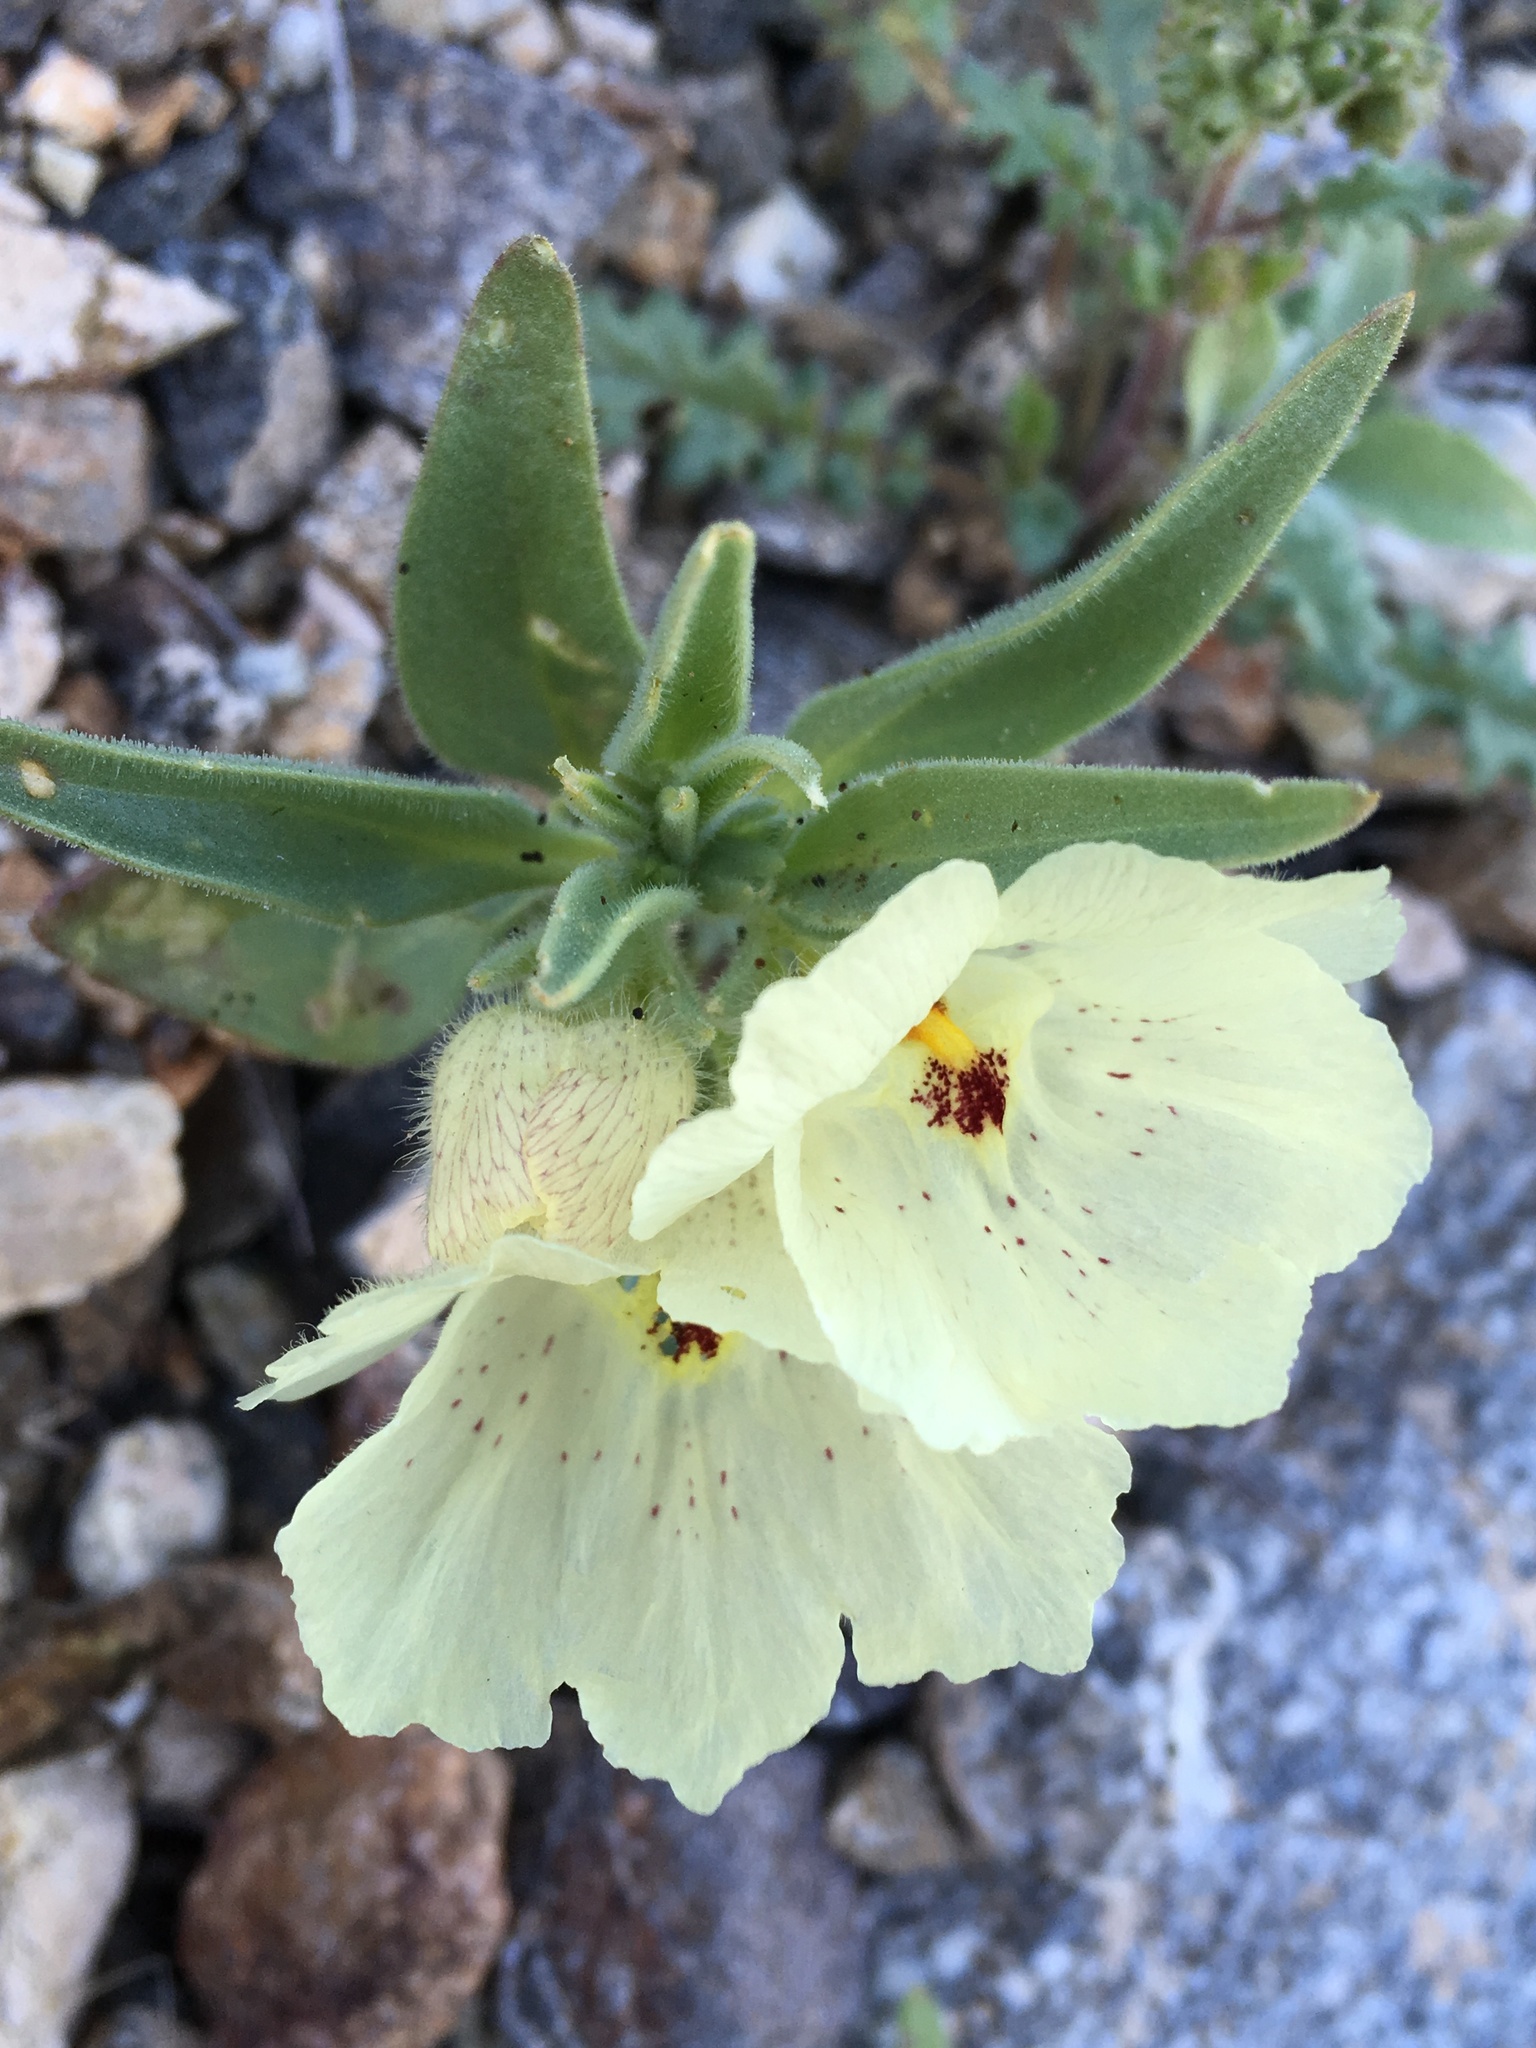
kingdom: Plantae
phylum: Tracheophyta
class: Magnoliopsida
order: Lamiales
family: Plantaginaceae
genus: Mohavea
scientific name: Mohavea confertiflora
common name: Ghost flower
